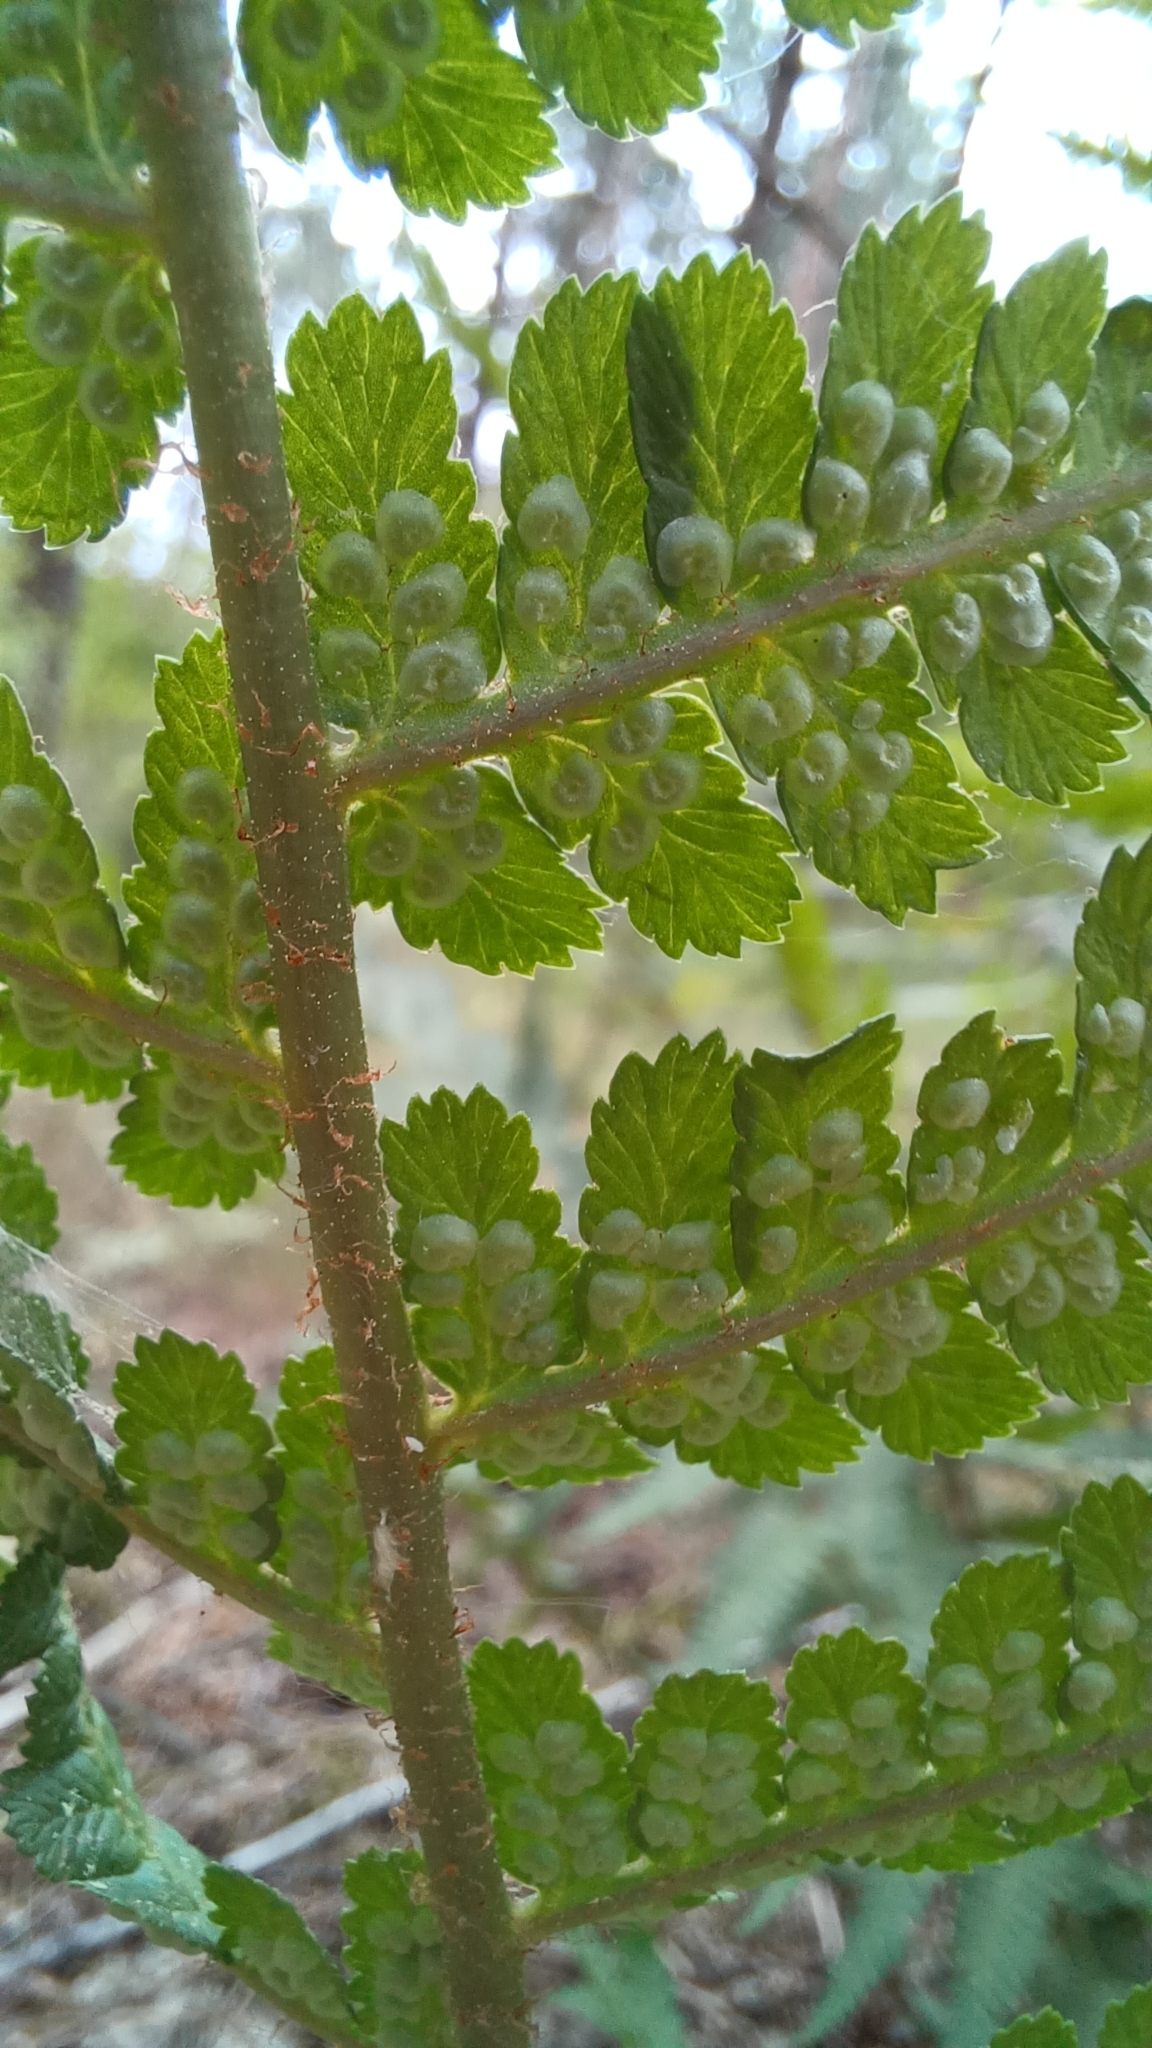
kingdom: Plantae
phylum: Tracheophyta
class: Polypodiopsida
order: Polypodiales
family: Dryopteridaceae
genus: Dryopteris
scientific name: Dryopteris filix-mas
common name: Male fern
